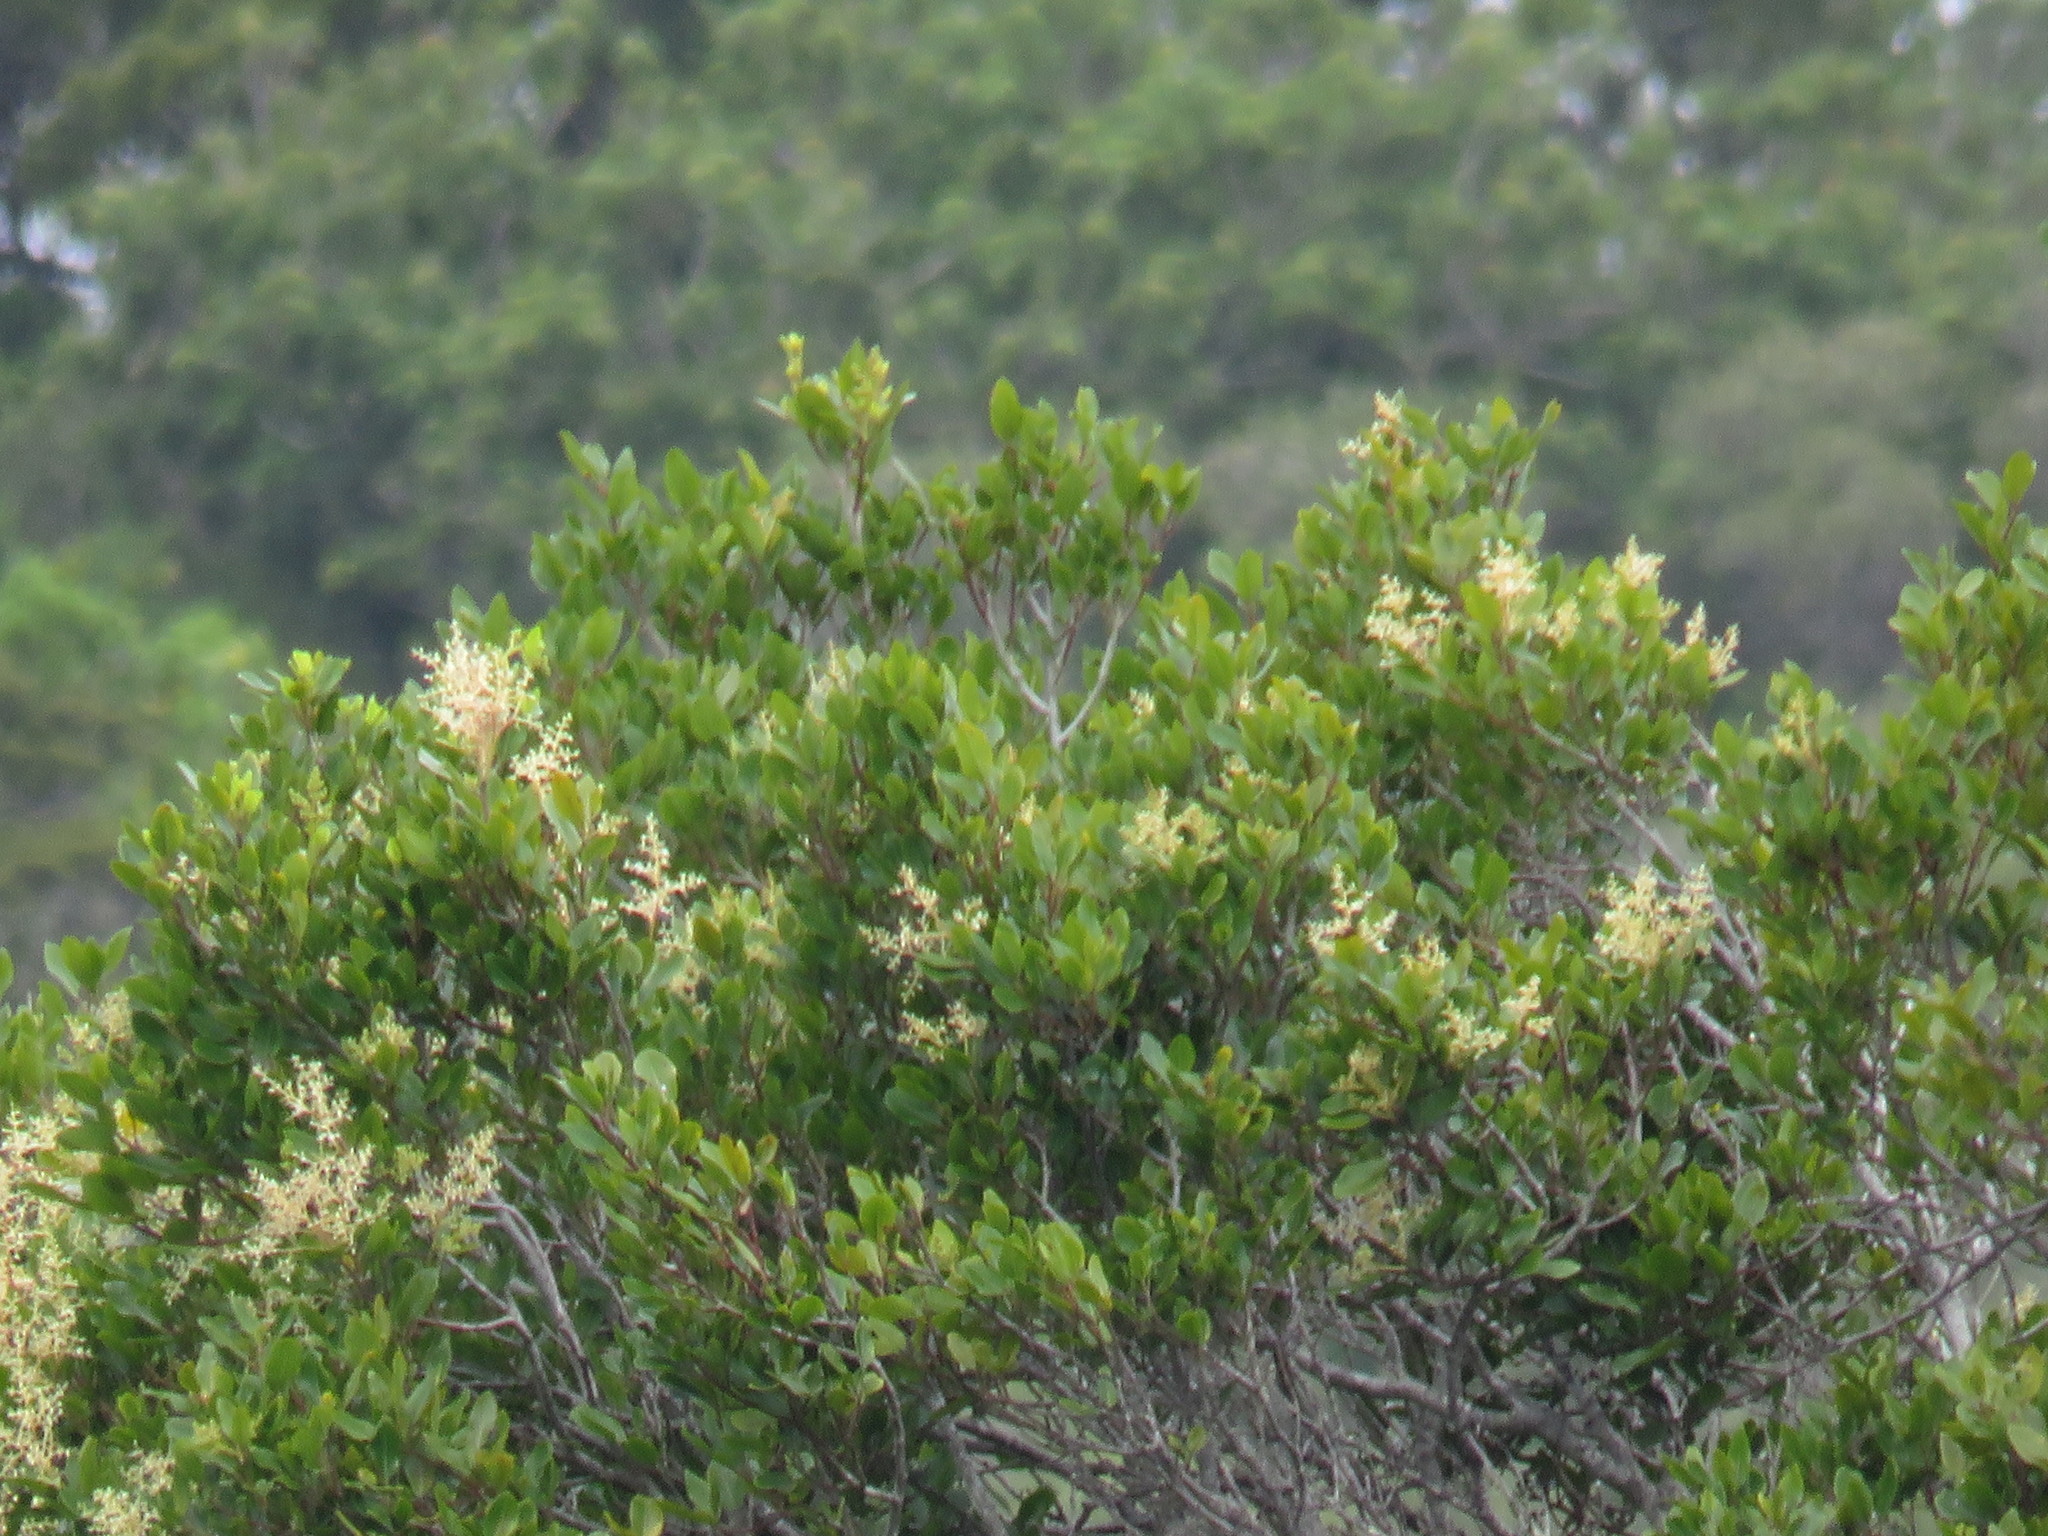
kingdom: Plantae
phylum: Tracheophyta
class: Magnoliopsida
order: Celastrales
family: Celastraceae
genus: Pterocelastrus
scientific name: Pterocelastrus tricuspidatus
